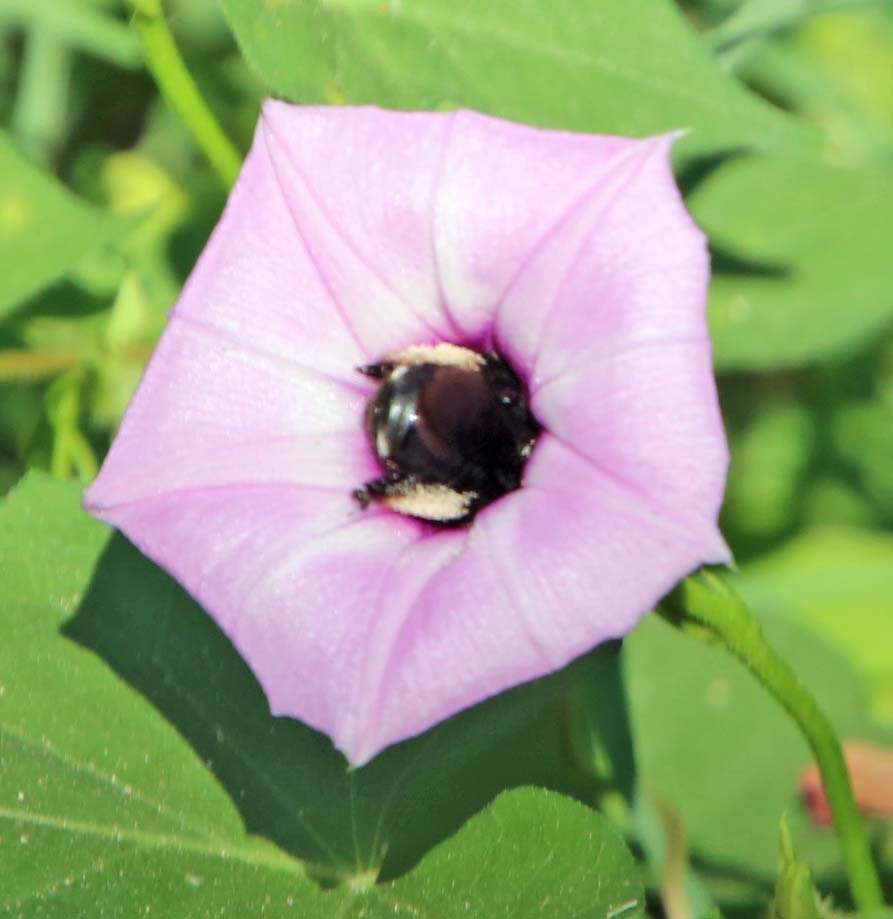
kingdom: Animalia
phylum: Arthropoda
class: Insecta
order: Hymenoptera
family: Apidae
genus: Melissodes
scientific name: Melissodes bimaculatus
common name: Two-spotted long-horned bee
